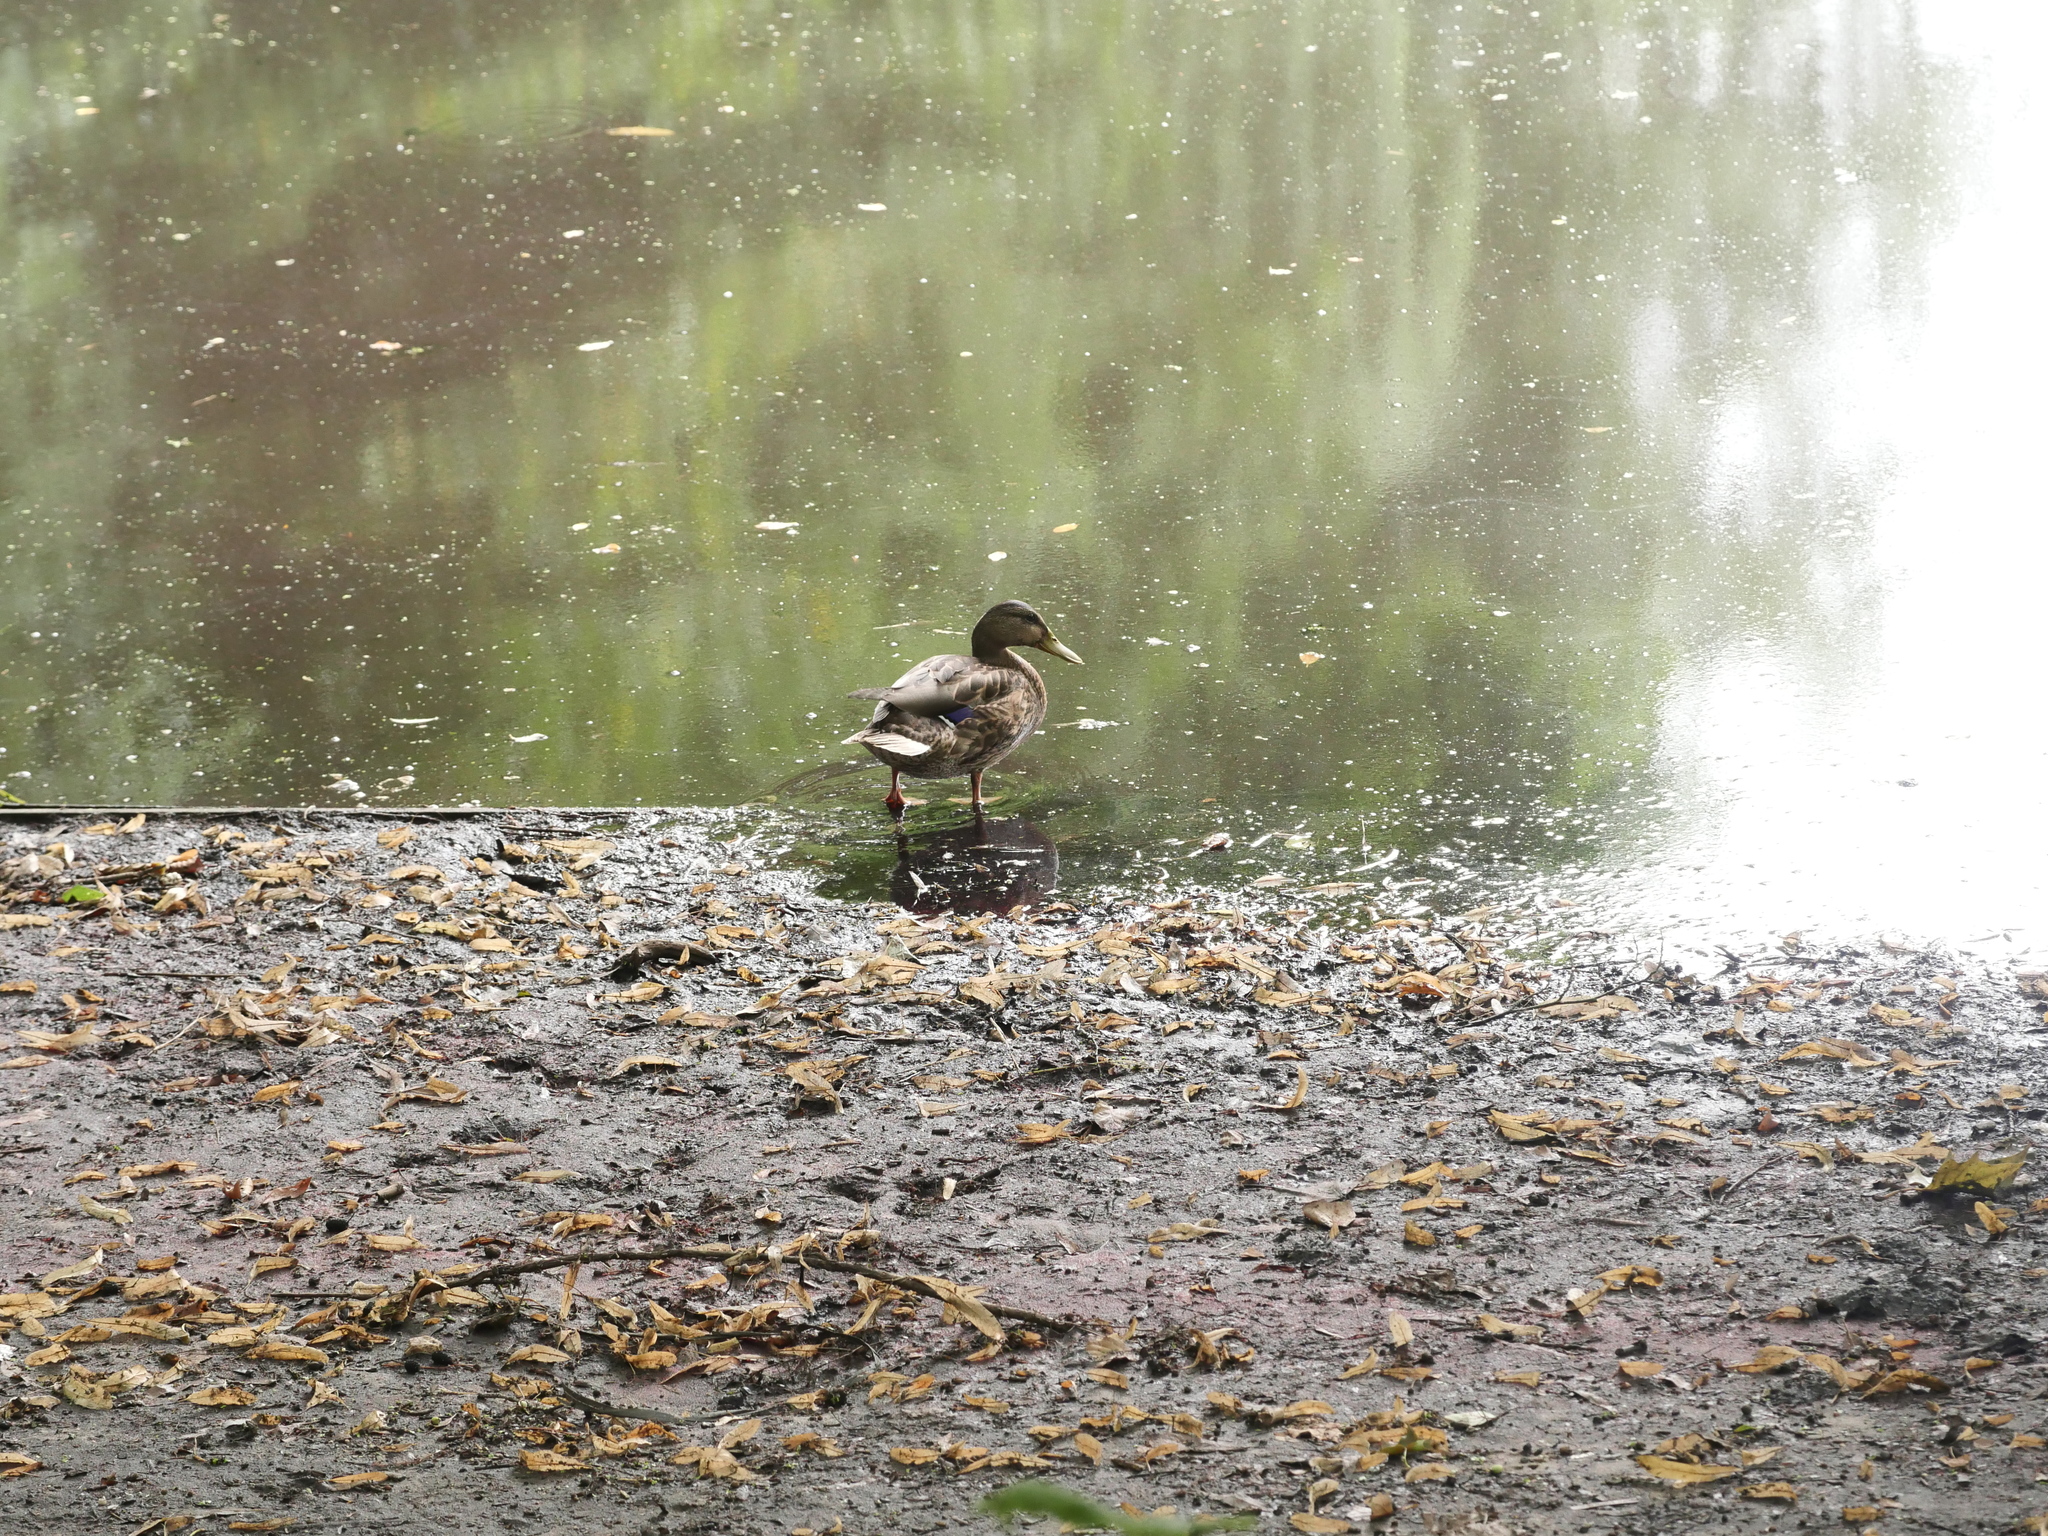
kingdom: Animalia
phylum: Chordata
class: Aves
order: Anseriformes
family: Anatidae
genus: Anas
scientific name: Anas platyrhynchos
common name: Mallard
